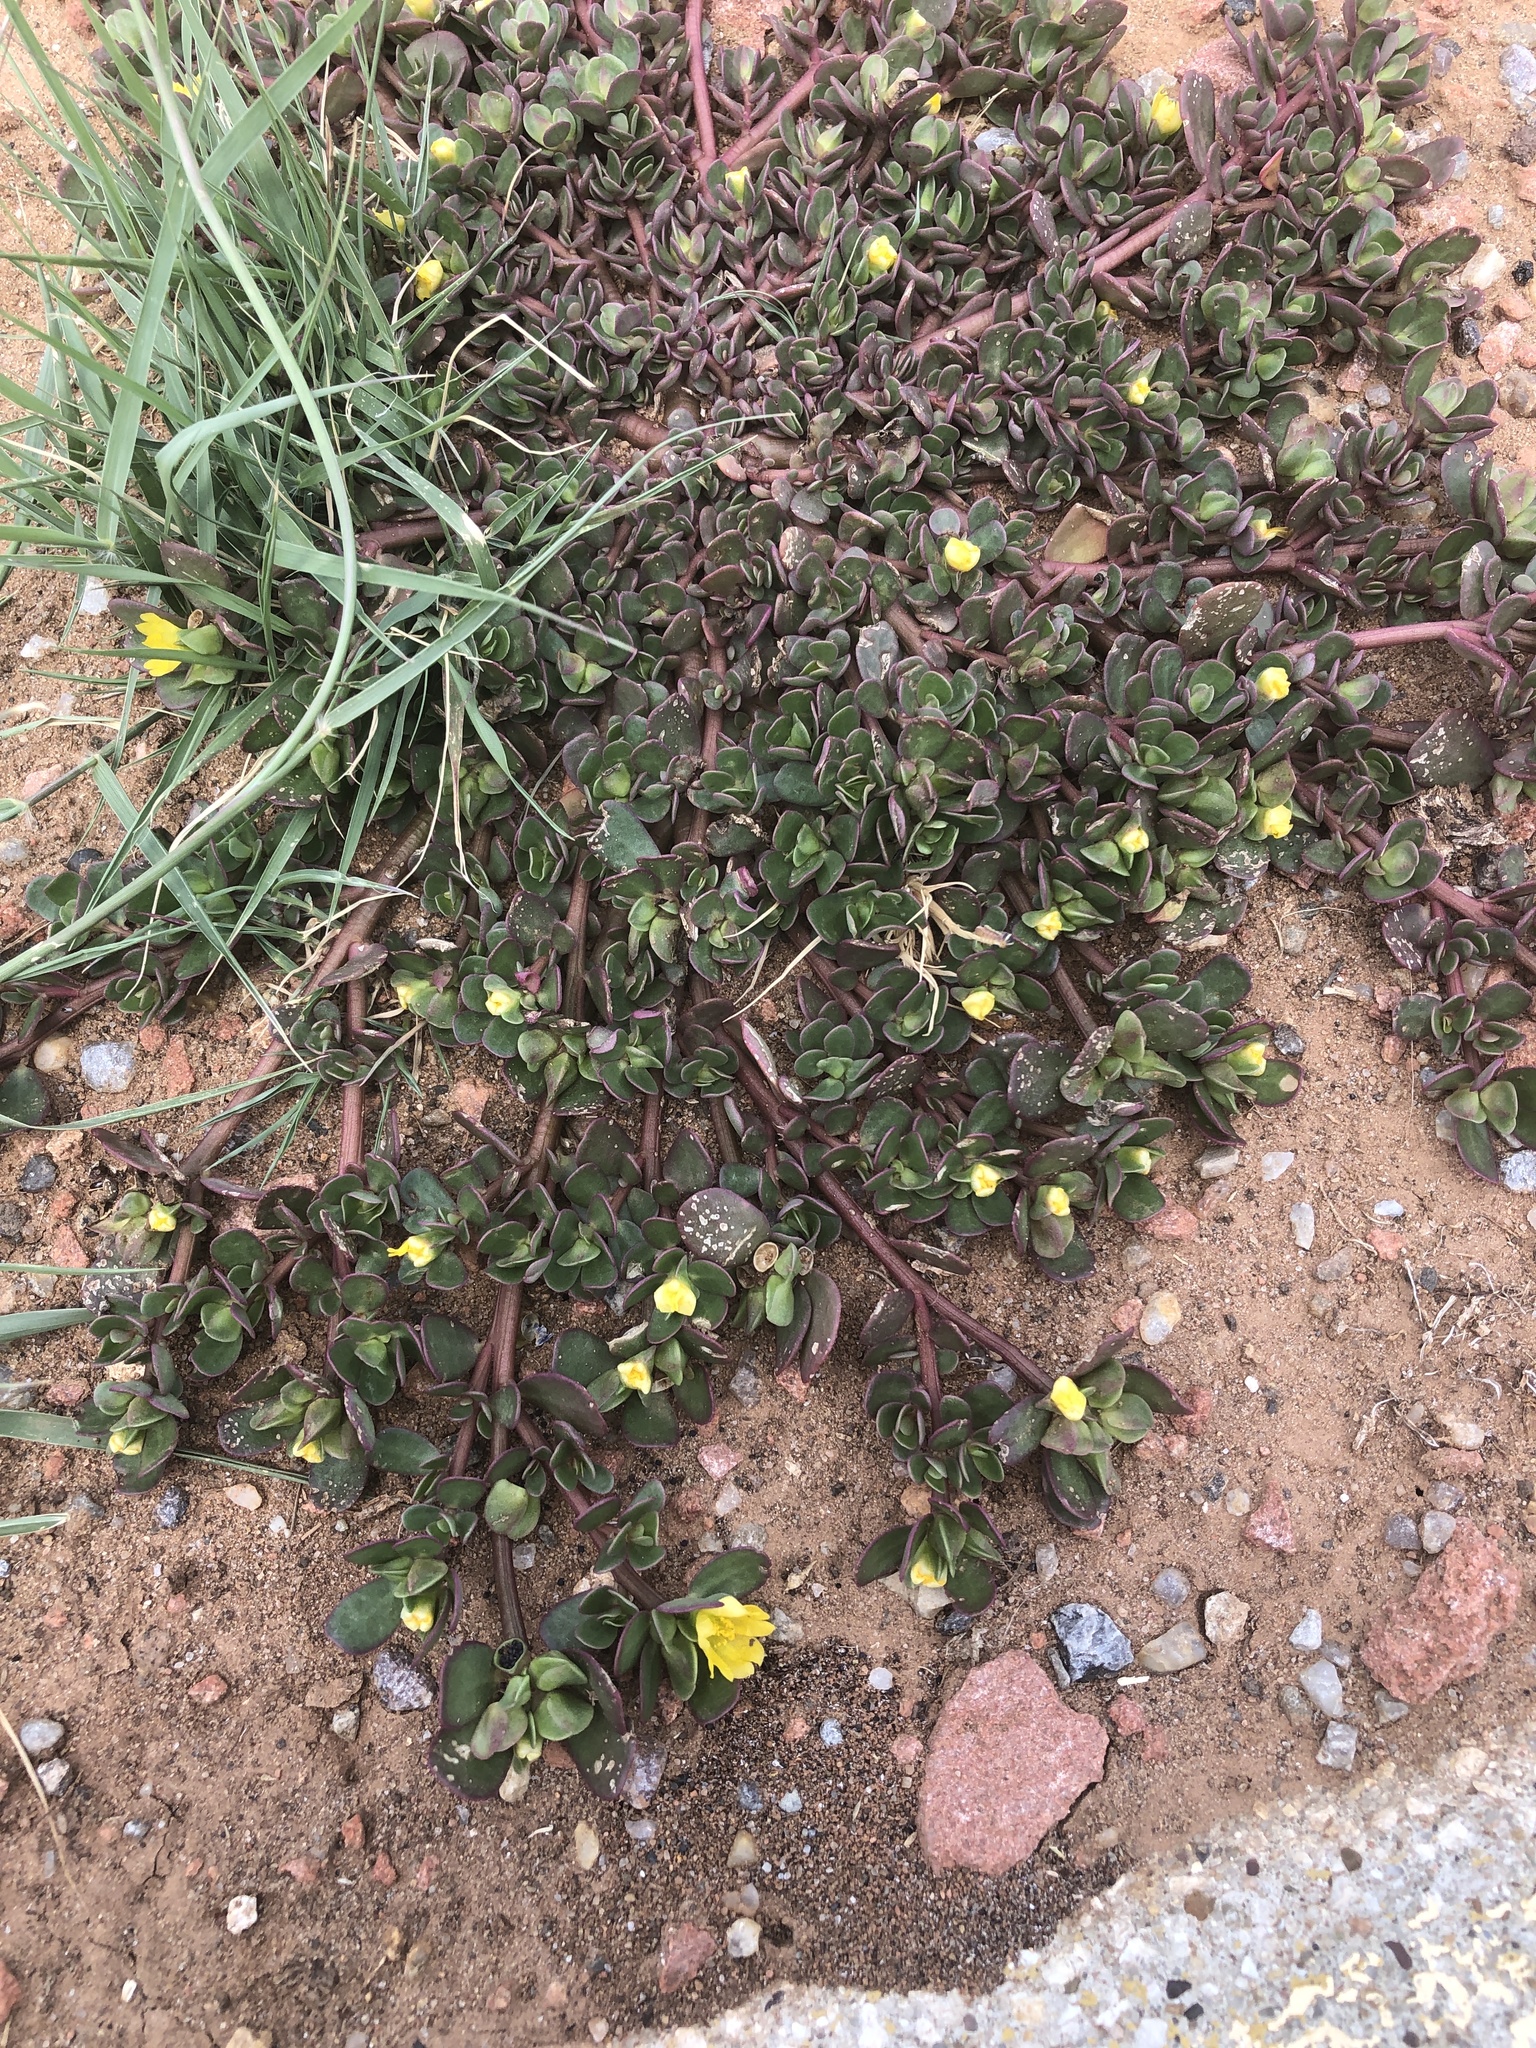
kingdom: Plantae
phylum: Tracheophyta
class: Magnoliopsida
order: Caryophyllales
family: Portulacaceae
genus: Portulaca
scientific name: Portulaca oleracea
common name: Common purslane
